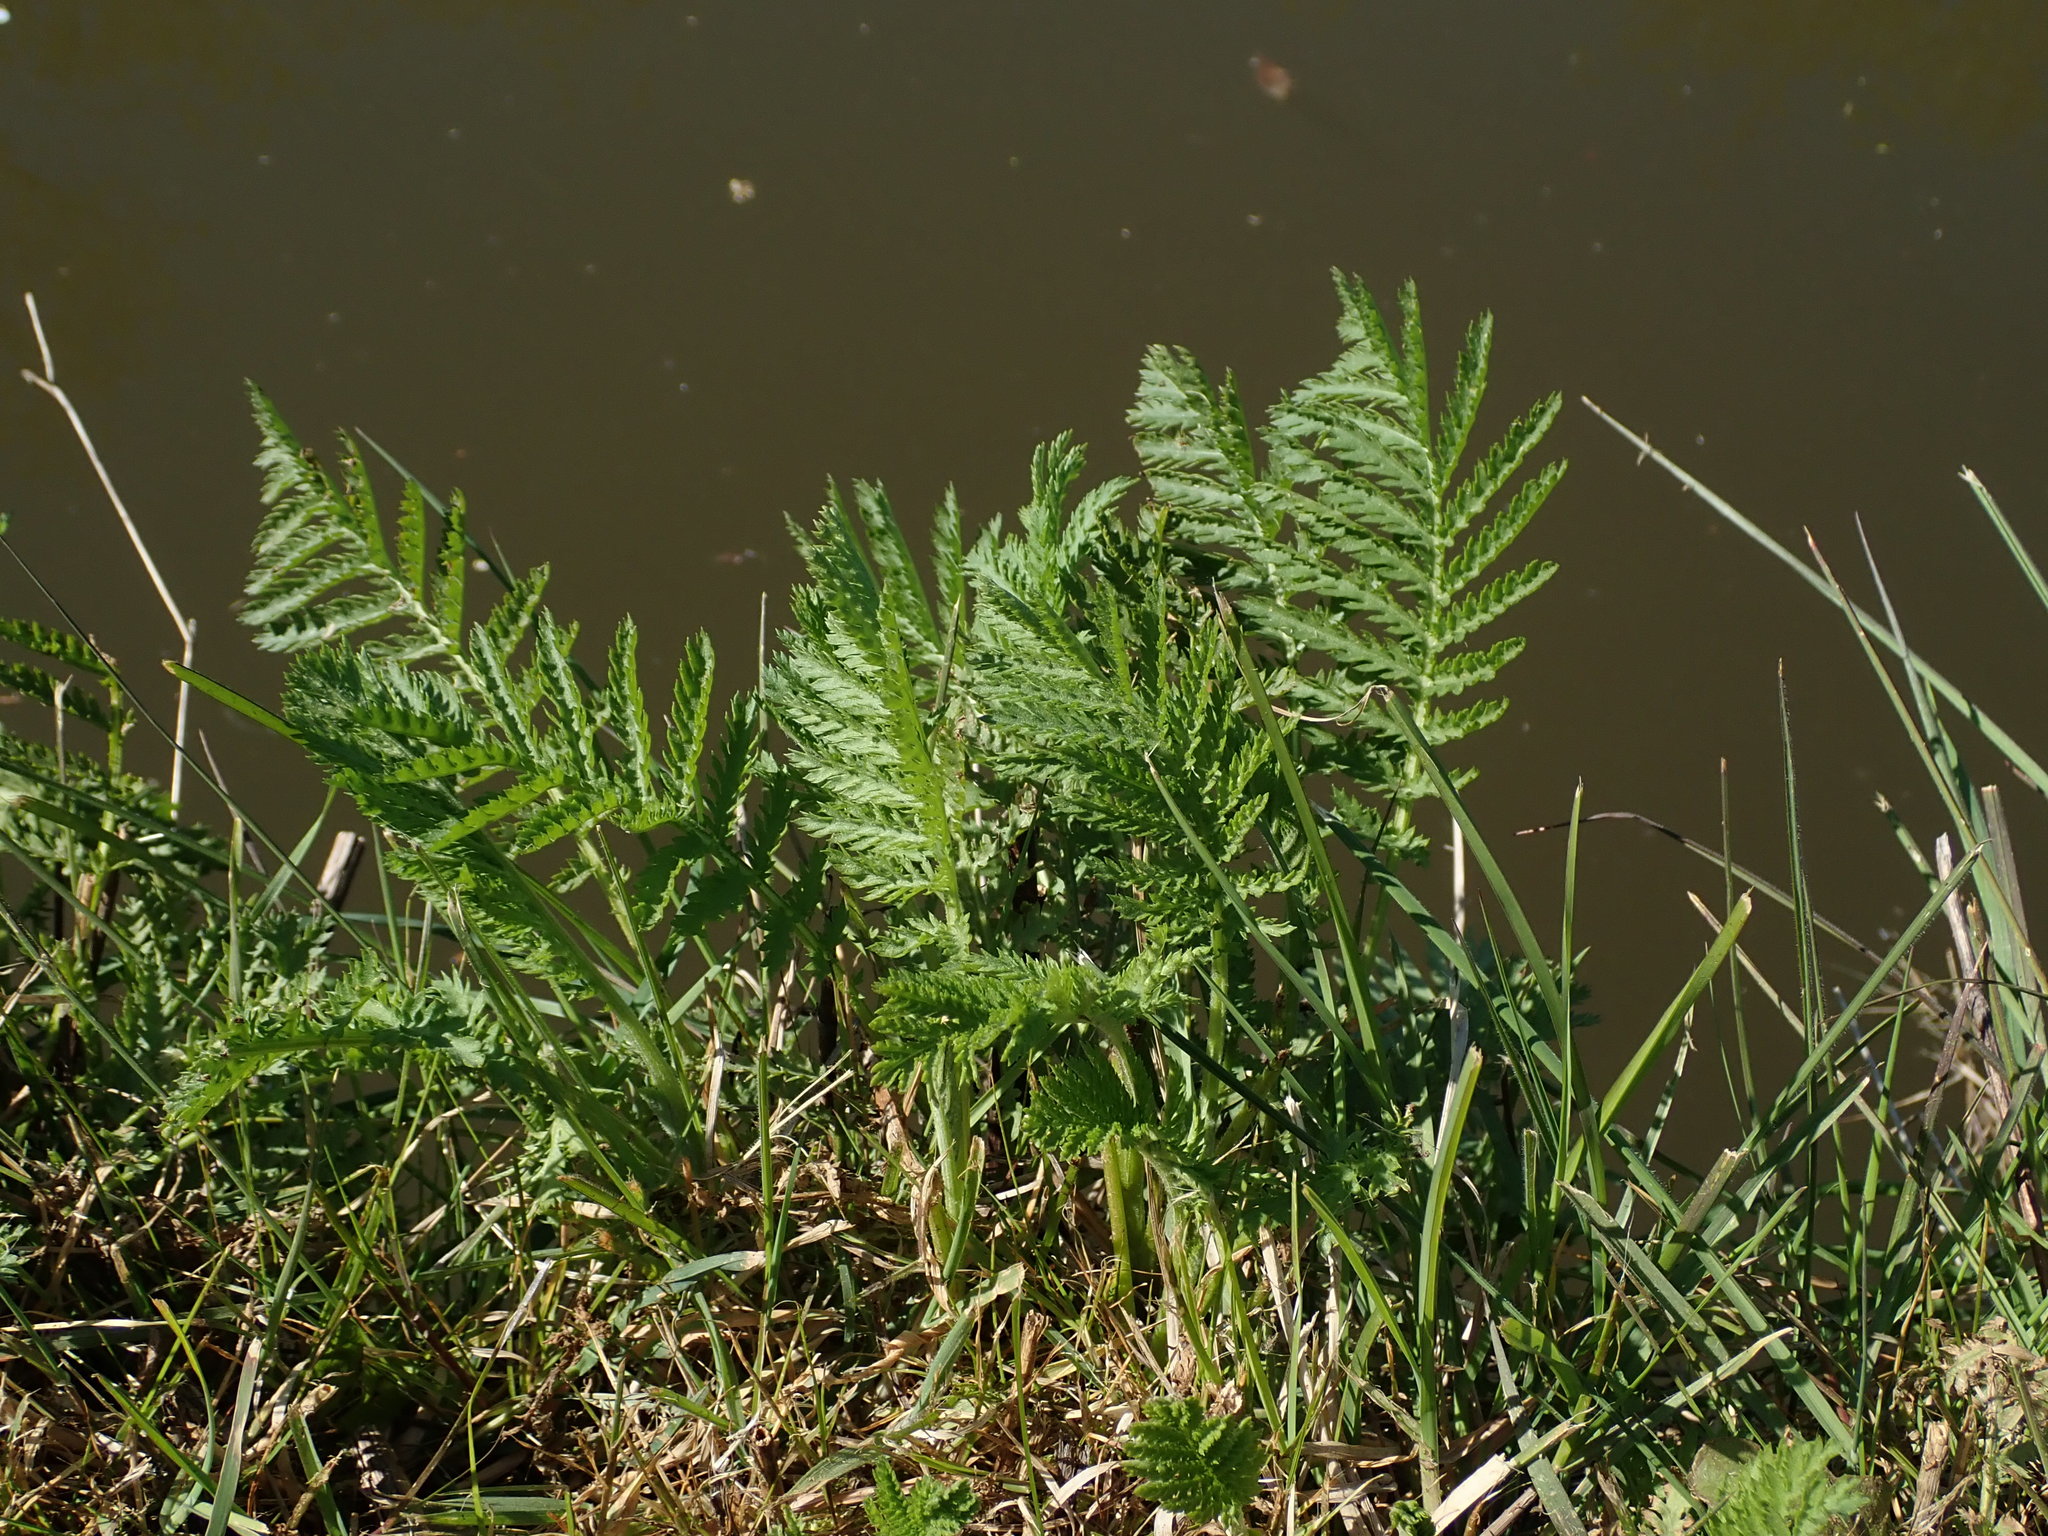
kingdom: Plantae
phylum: Tracheophyta
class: Magnoliopsida
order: Asterales
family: Asteraceae
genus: Tanacetum
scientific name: Tanacetum vulgare
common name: Common tansy
